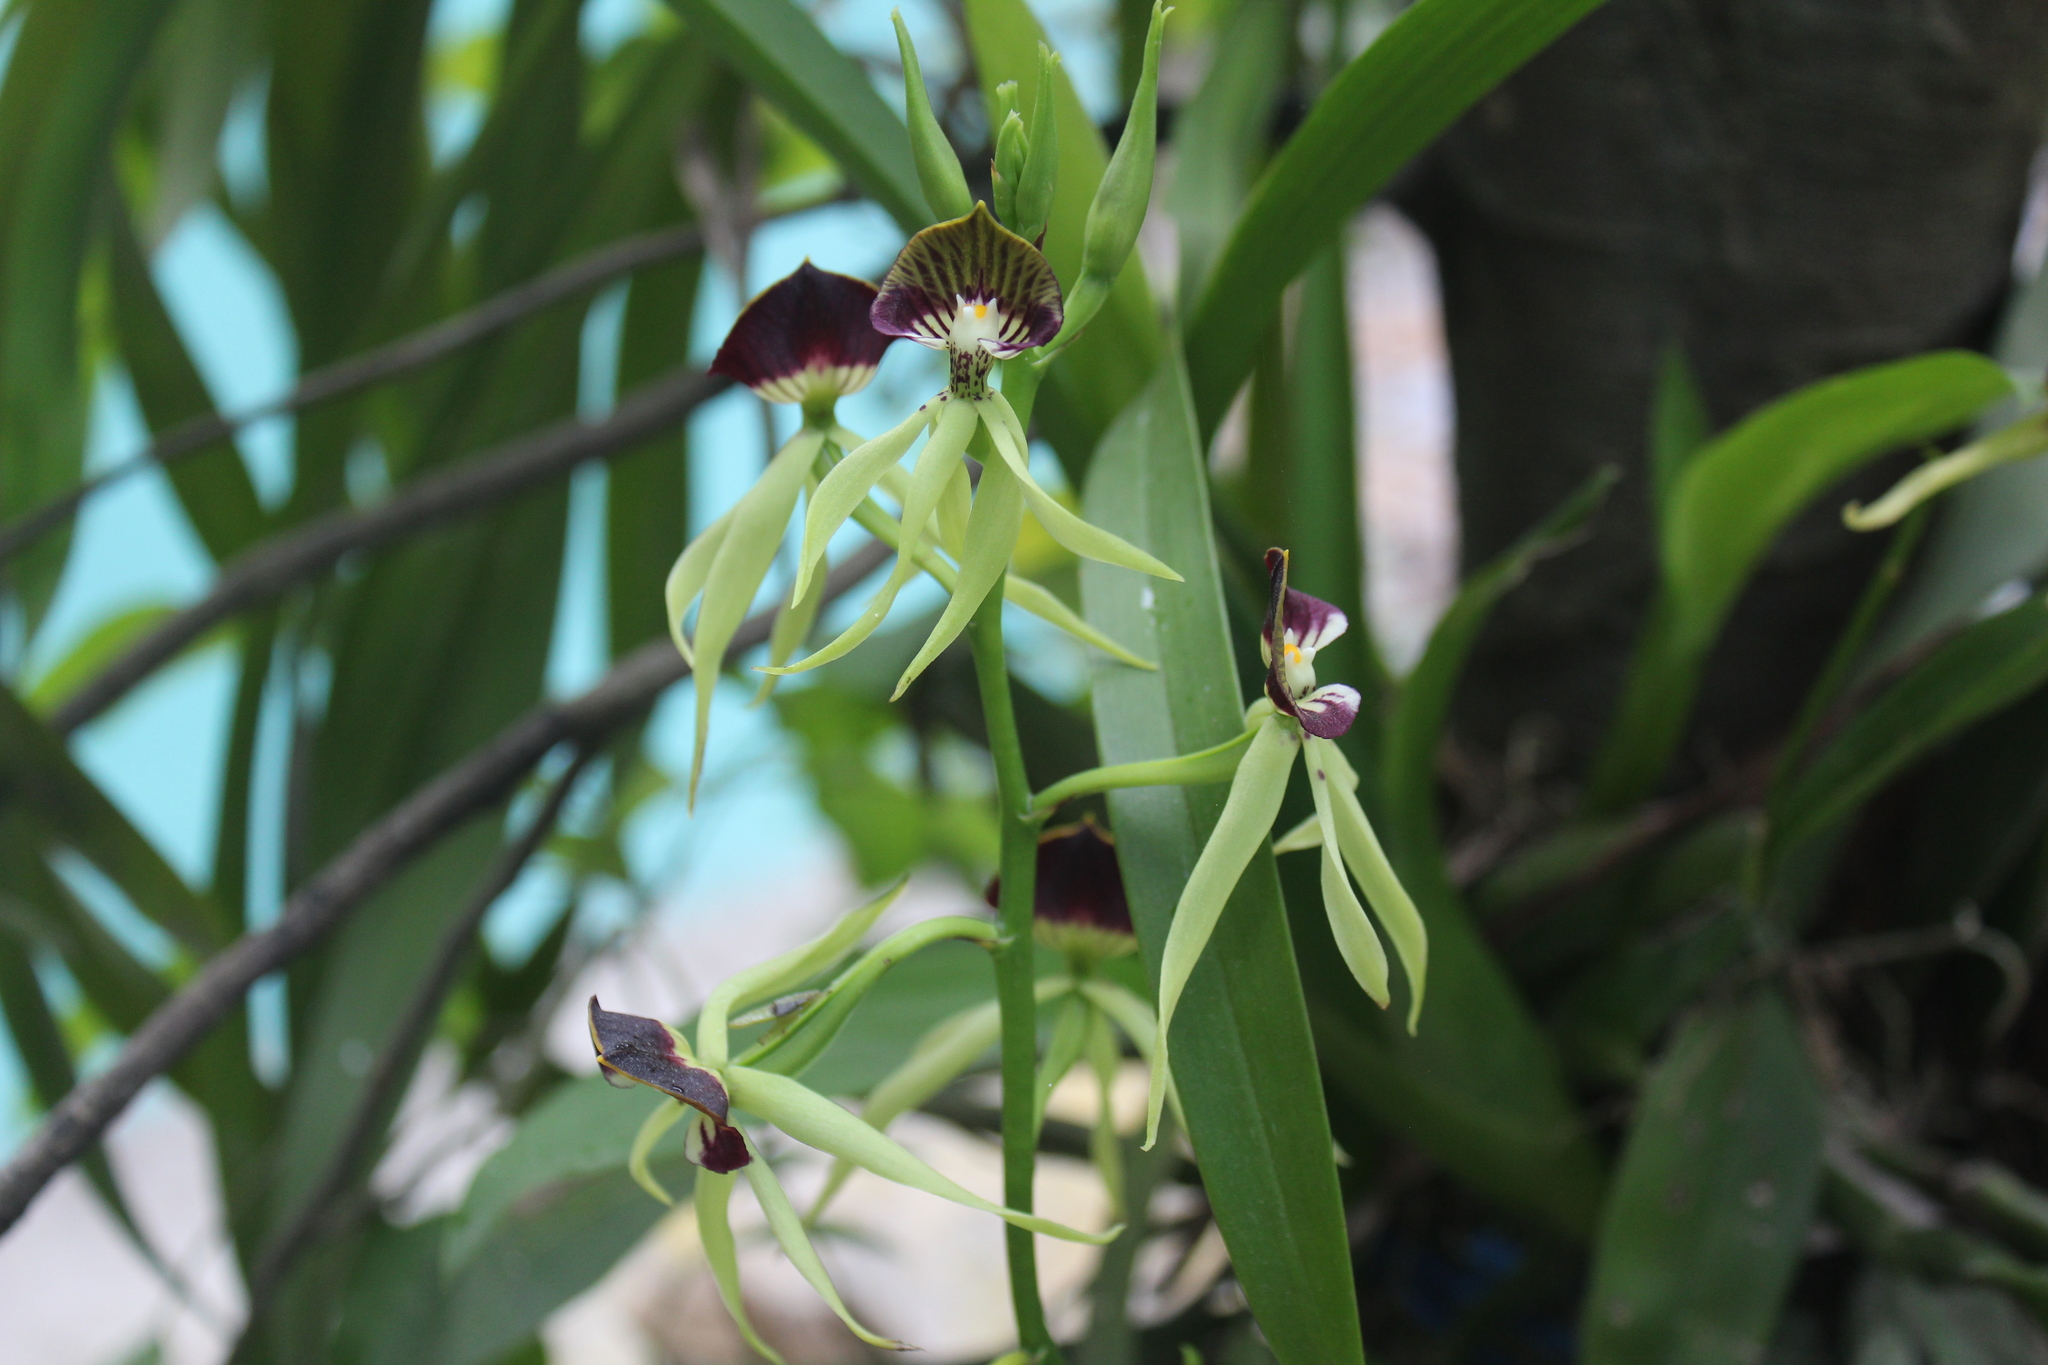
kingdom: Plantae
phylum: Tracheophyta
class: Liliopsida
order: Asparagales
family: Orchidaceae
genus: Prosthechea
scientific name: Prosthechea cochleata
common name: Clamshell orchid
